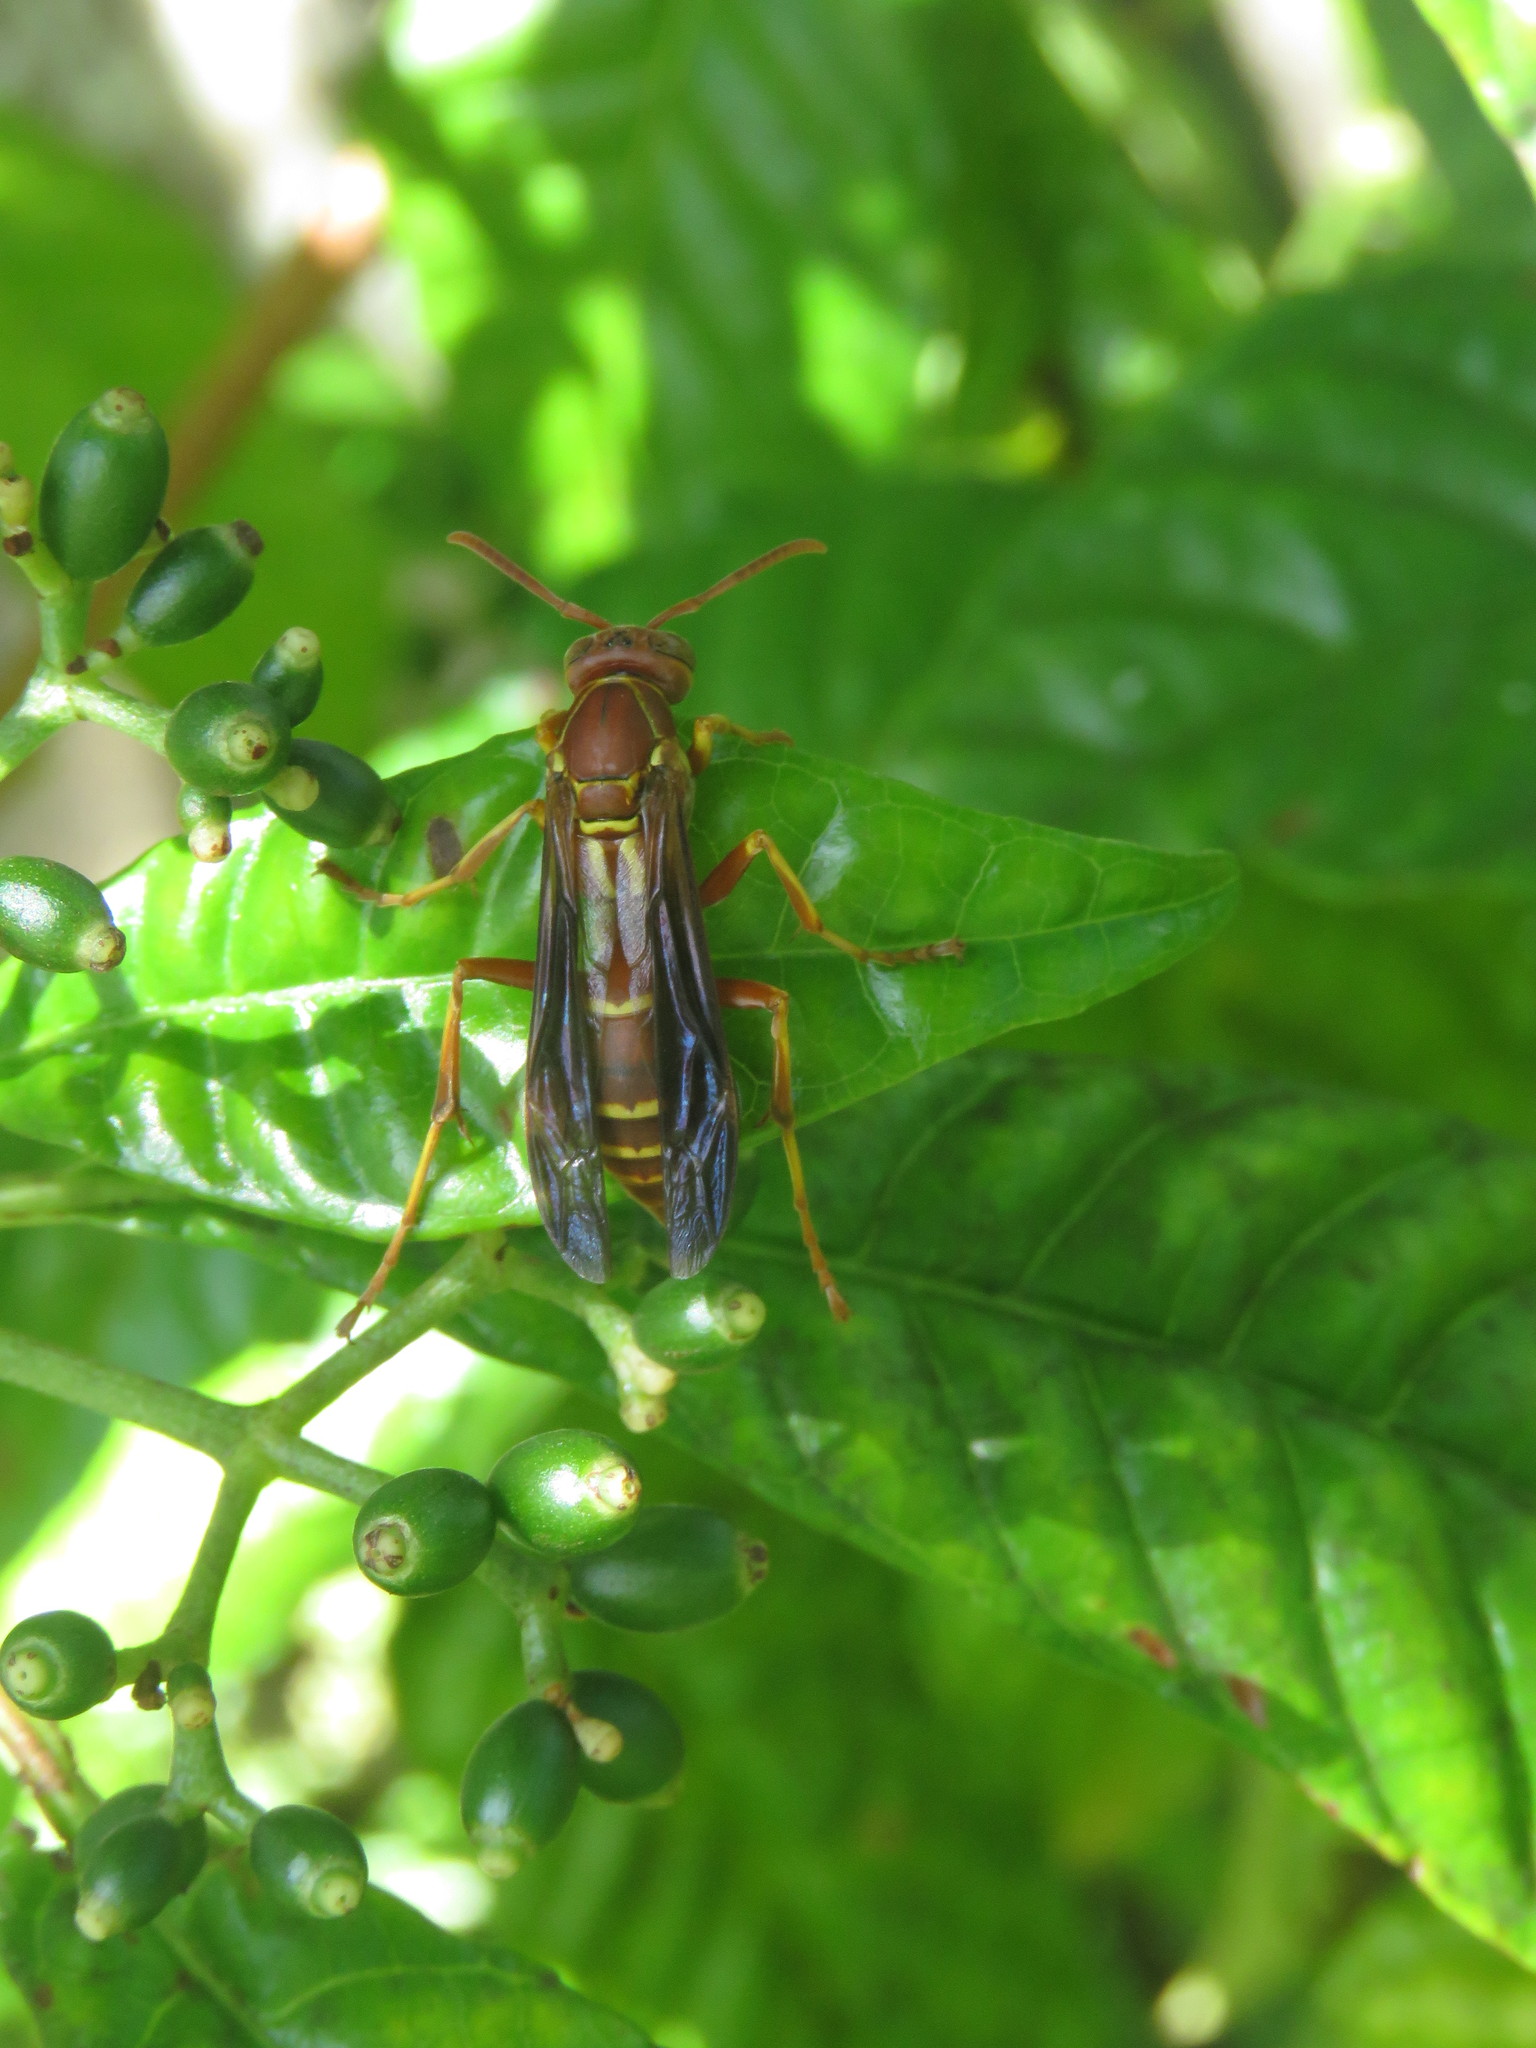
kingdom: Animalia
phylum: Arthropoda
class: Insecta
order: Hymenoptera
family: Eumenidae
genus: Polistes
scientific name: Polistes bellicosus
